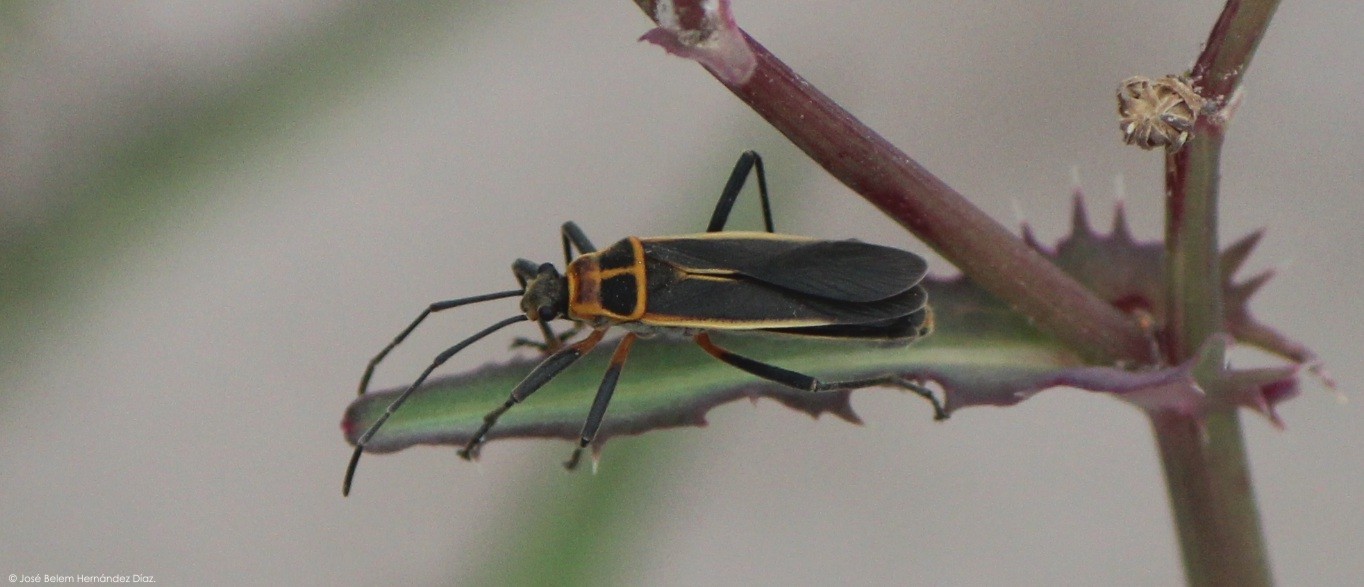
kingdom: Animalia
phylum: Arthropoda
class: Insecta
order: Hemiptera
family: Largidae
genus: Stenomacra
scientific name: Stenomacra marginella
